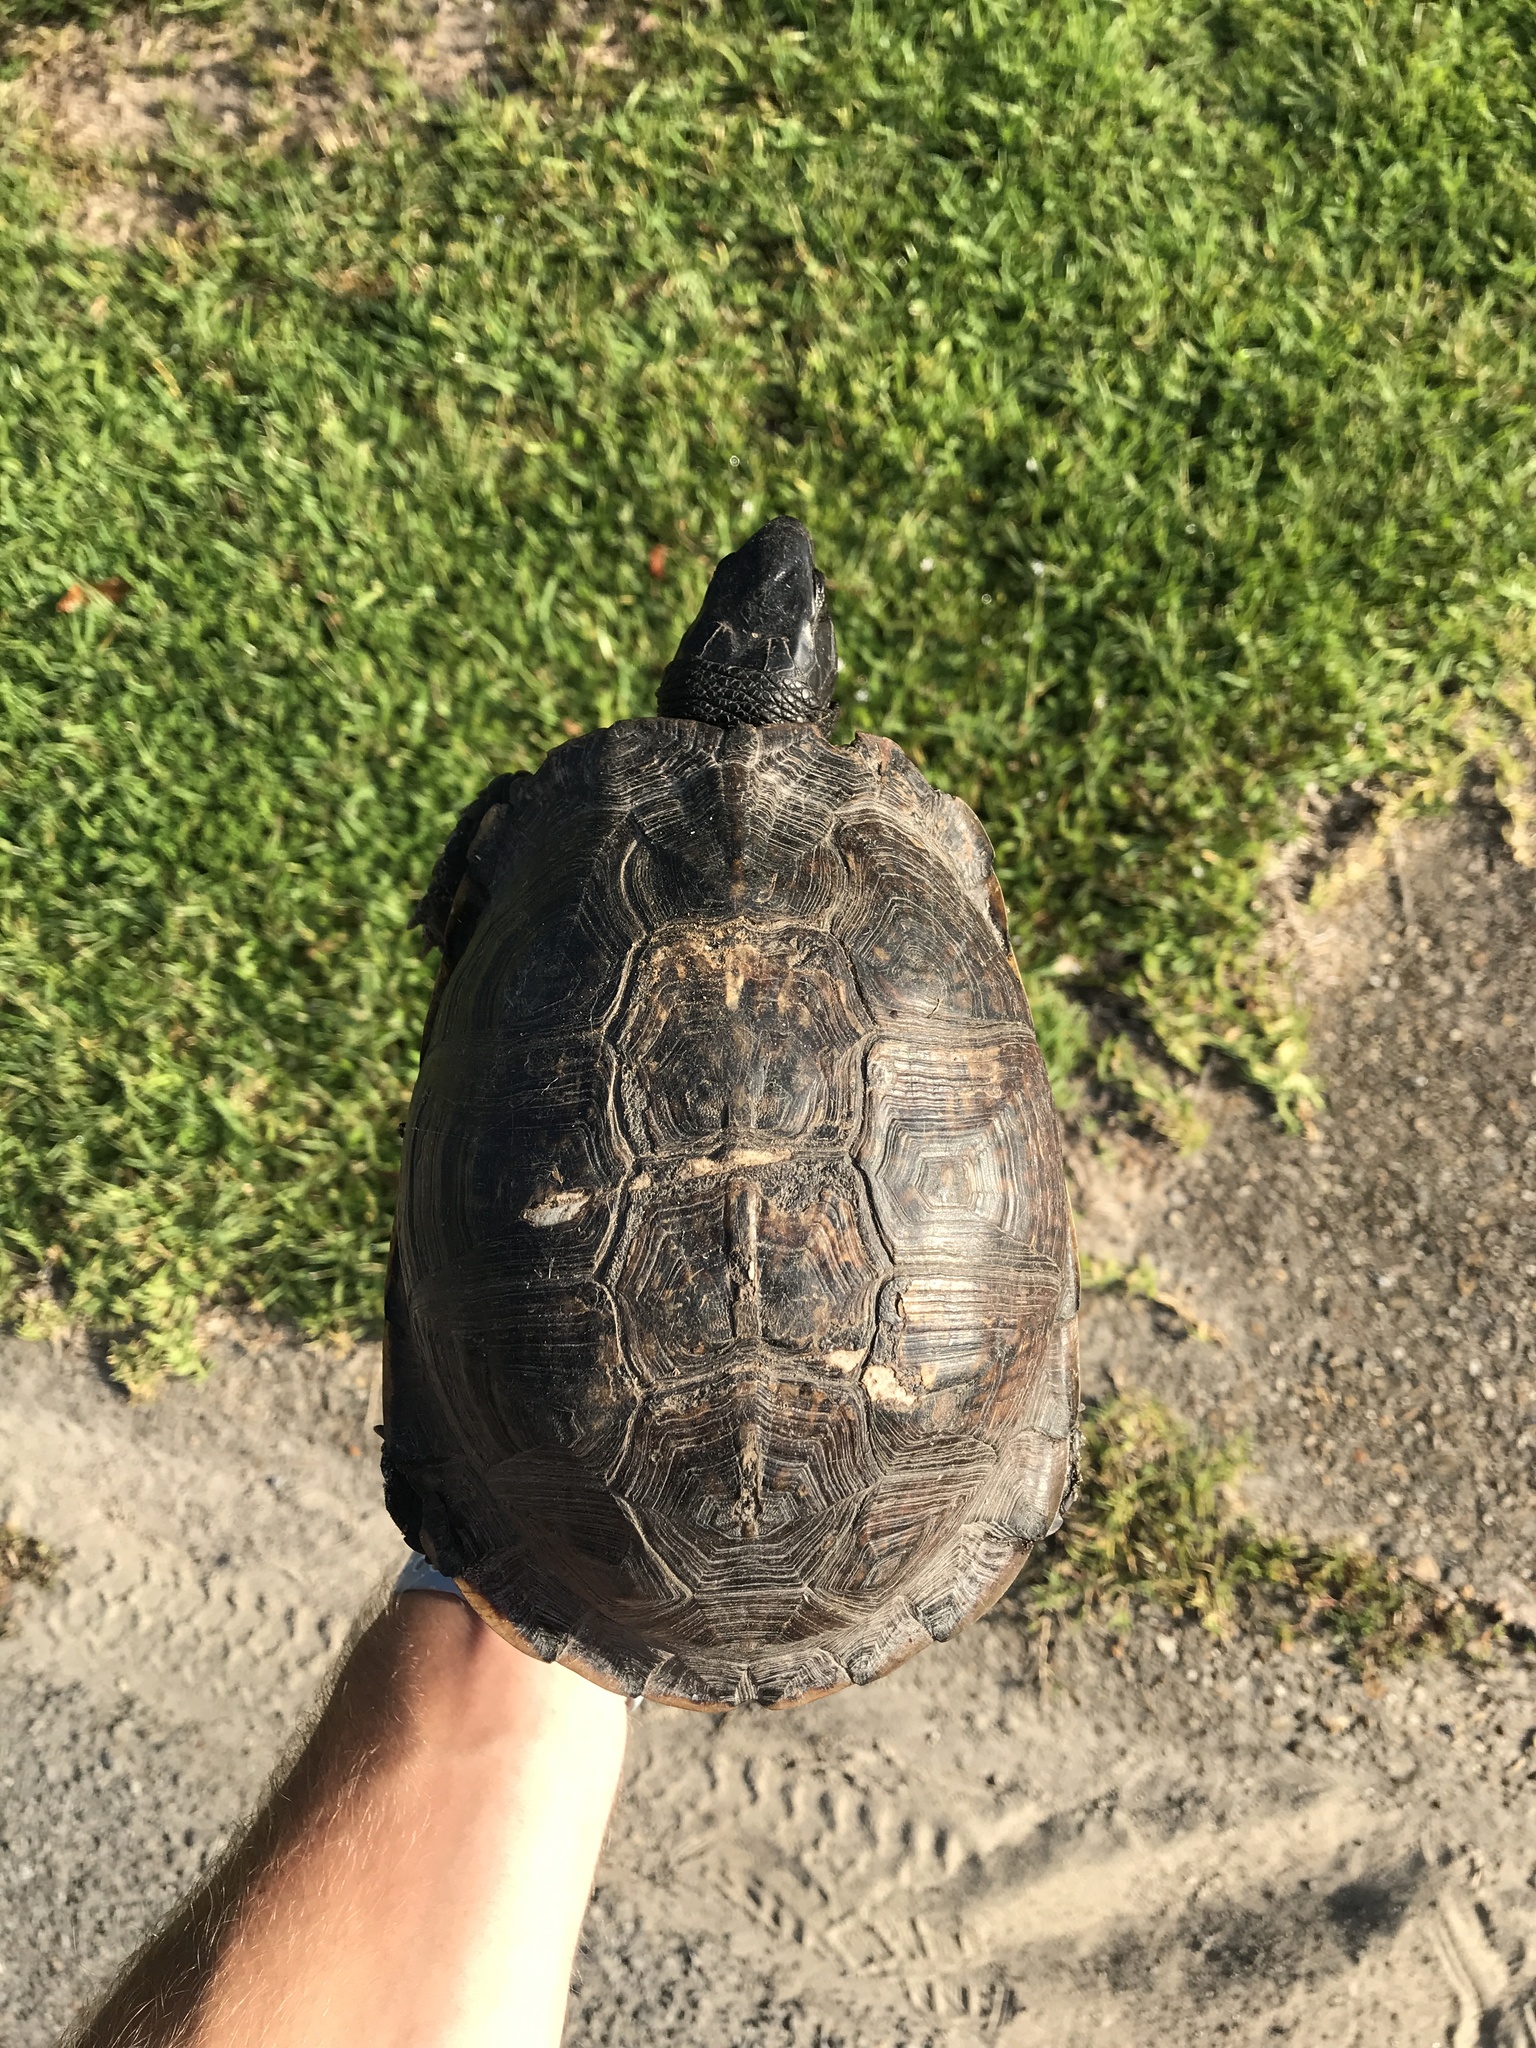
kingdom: Animalia
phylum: Chordata
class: Testudines
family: Emydidae
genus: Terrapene
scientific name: Terrapene carolina
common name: Common box turtle
